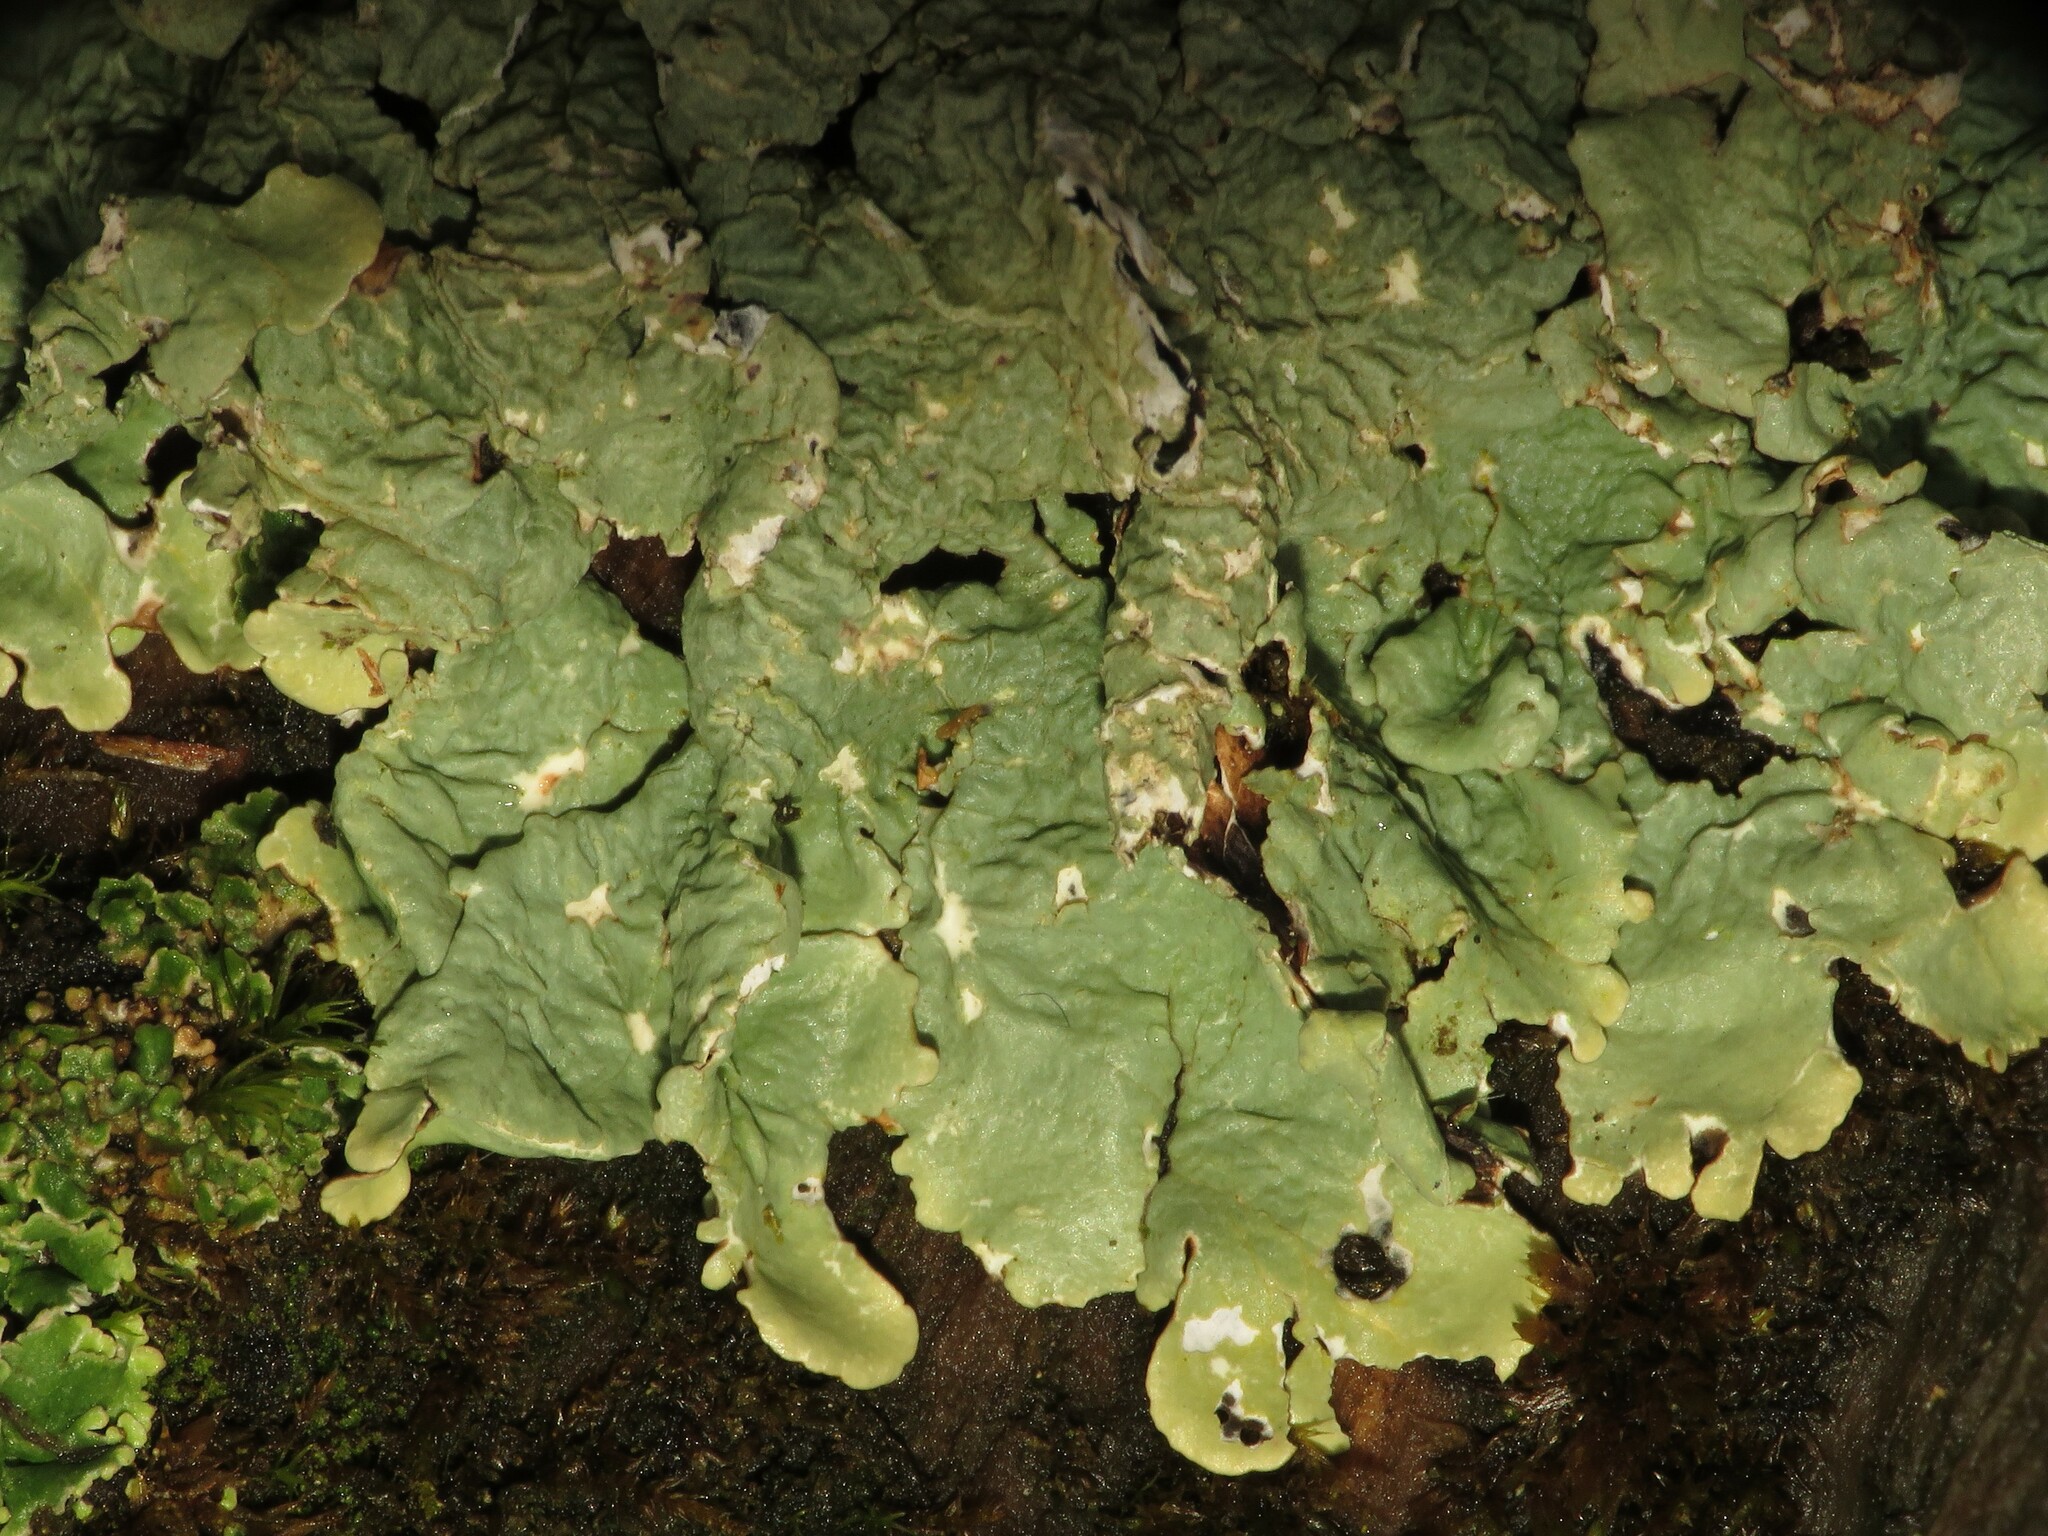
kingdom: Fungi
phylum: Ascomycota
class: Lecanoromycetes
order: Lecanorales
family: Parmeliaceae
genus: Flavoparmelia
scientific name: Flavoparmelia caperata
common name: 40-mile per hour lichen
